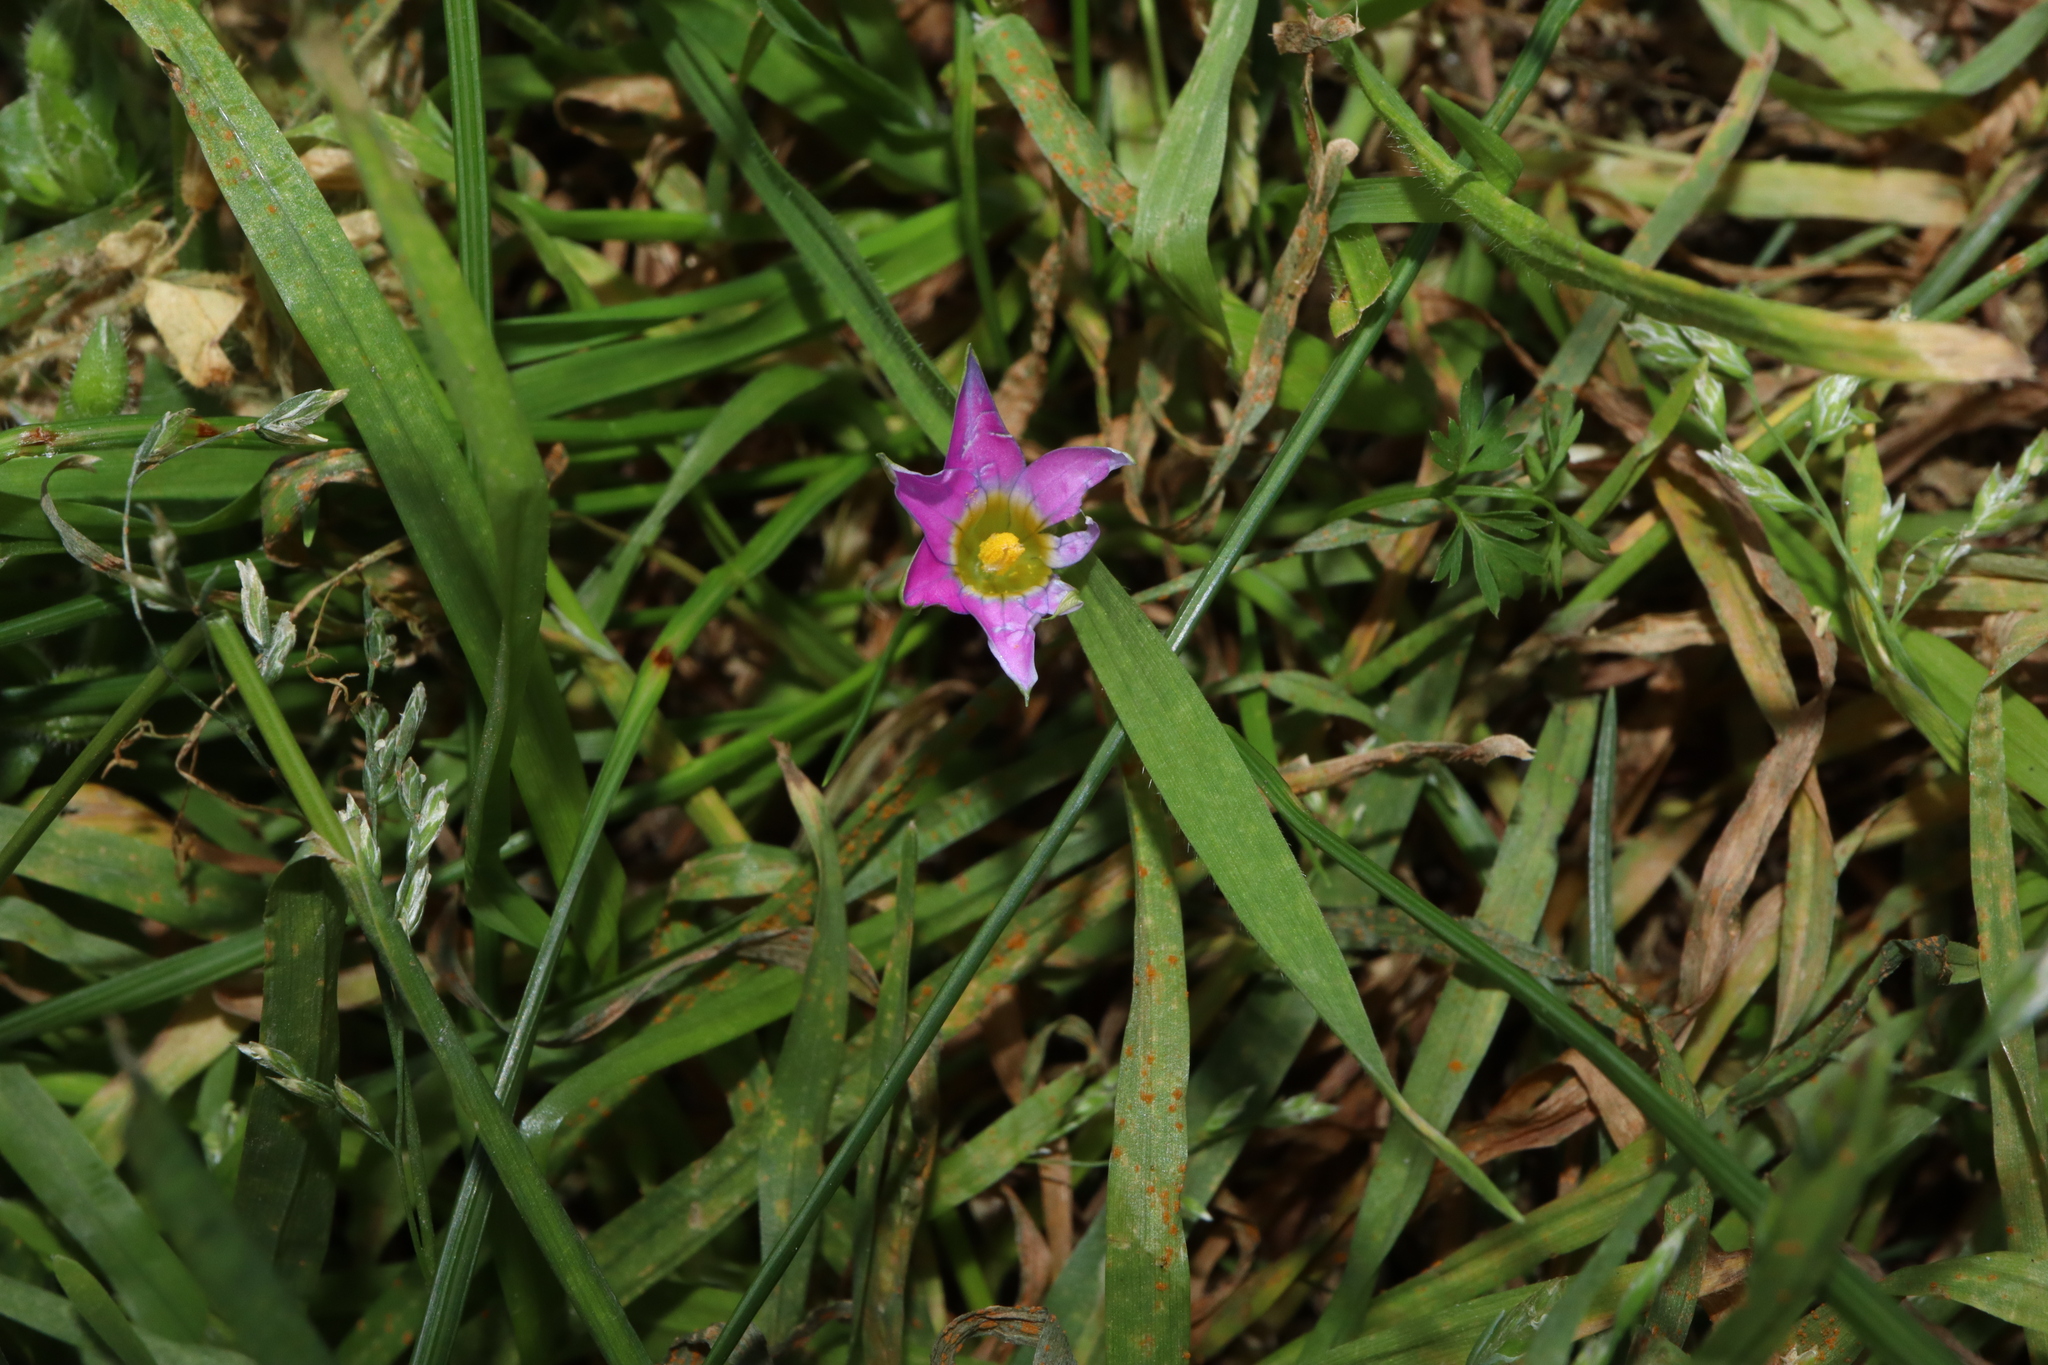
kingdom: Plantae
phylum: Tracheophyta
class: Liliopsida
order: Asparagales
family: Iridaceae
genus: Romulea
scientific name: Romulea rosea
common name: Oniongrass
